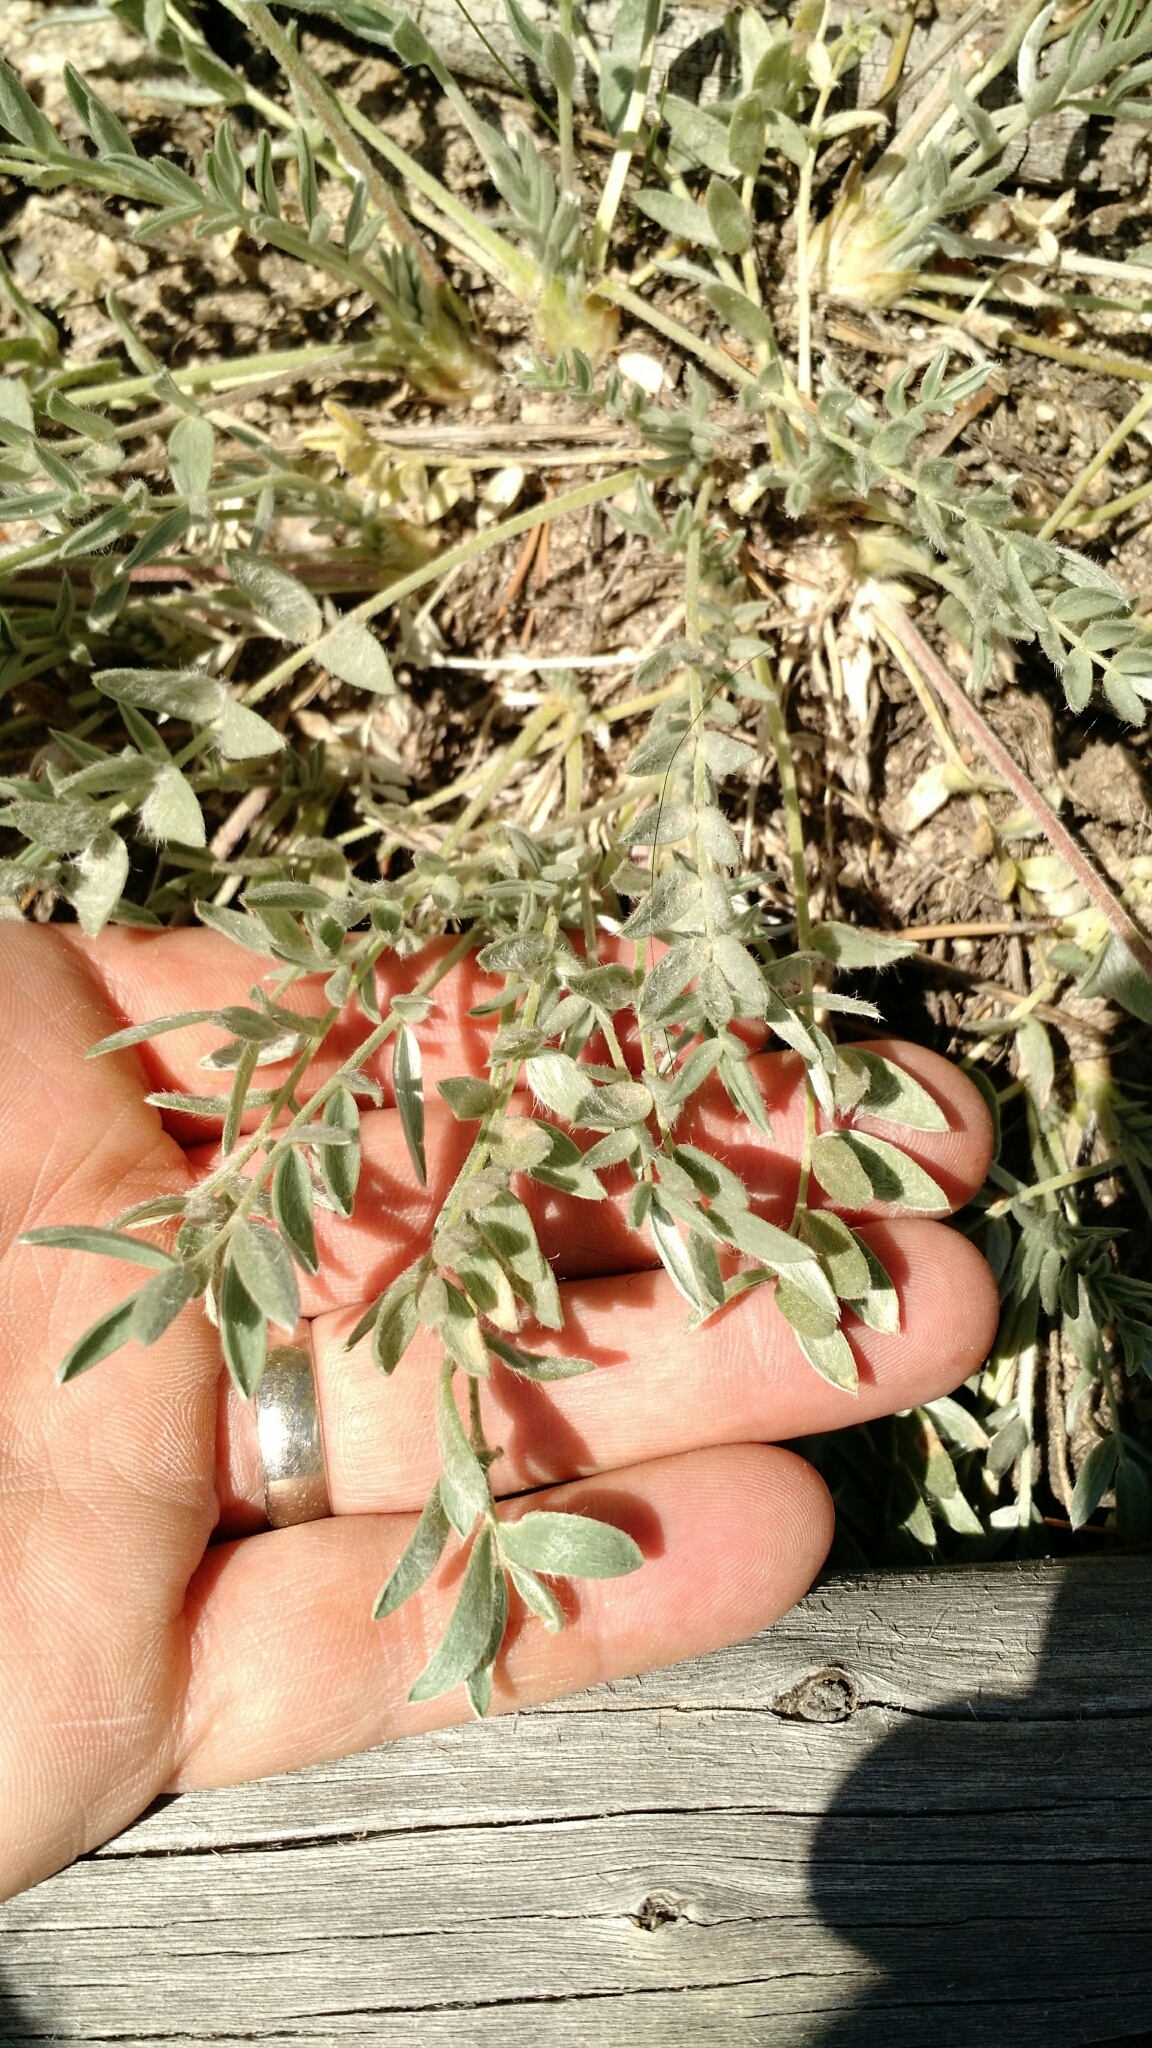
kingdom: Plantae
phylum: Tracheophyta
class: Magnoliopsida
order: Fabales
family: Fabaceae
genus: Oxytropis
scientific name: Oxytropis besseyi
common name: Bessey's locoweed
